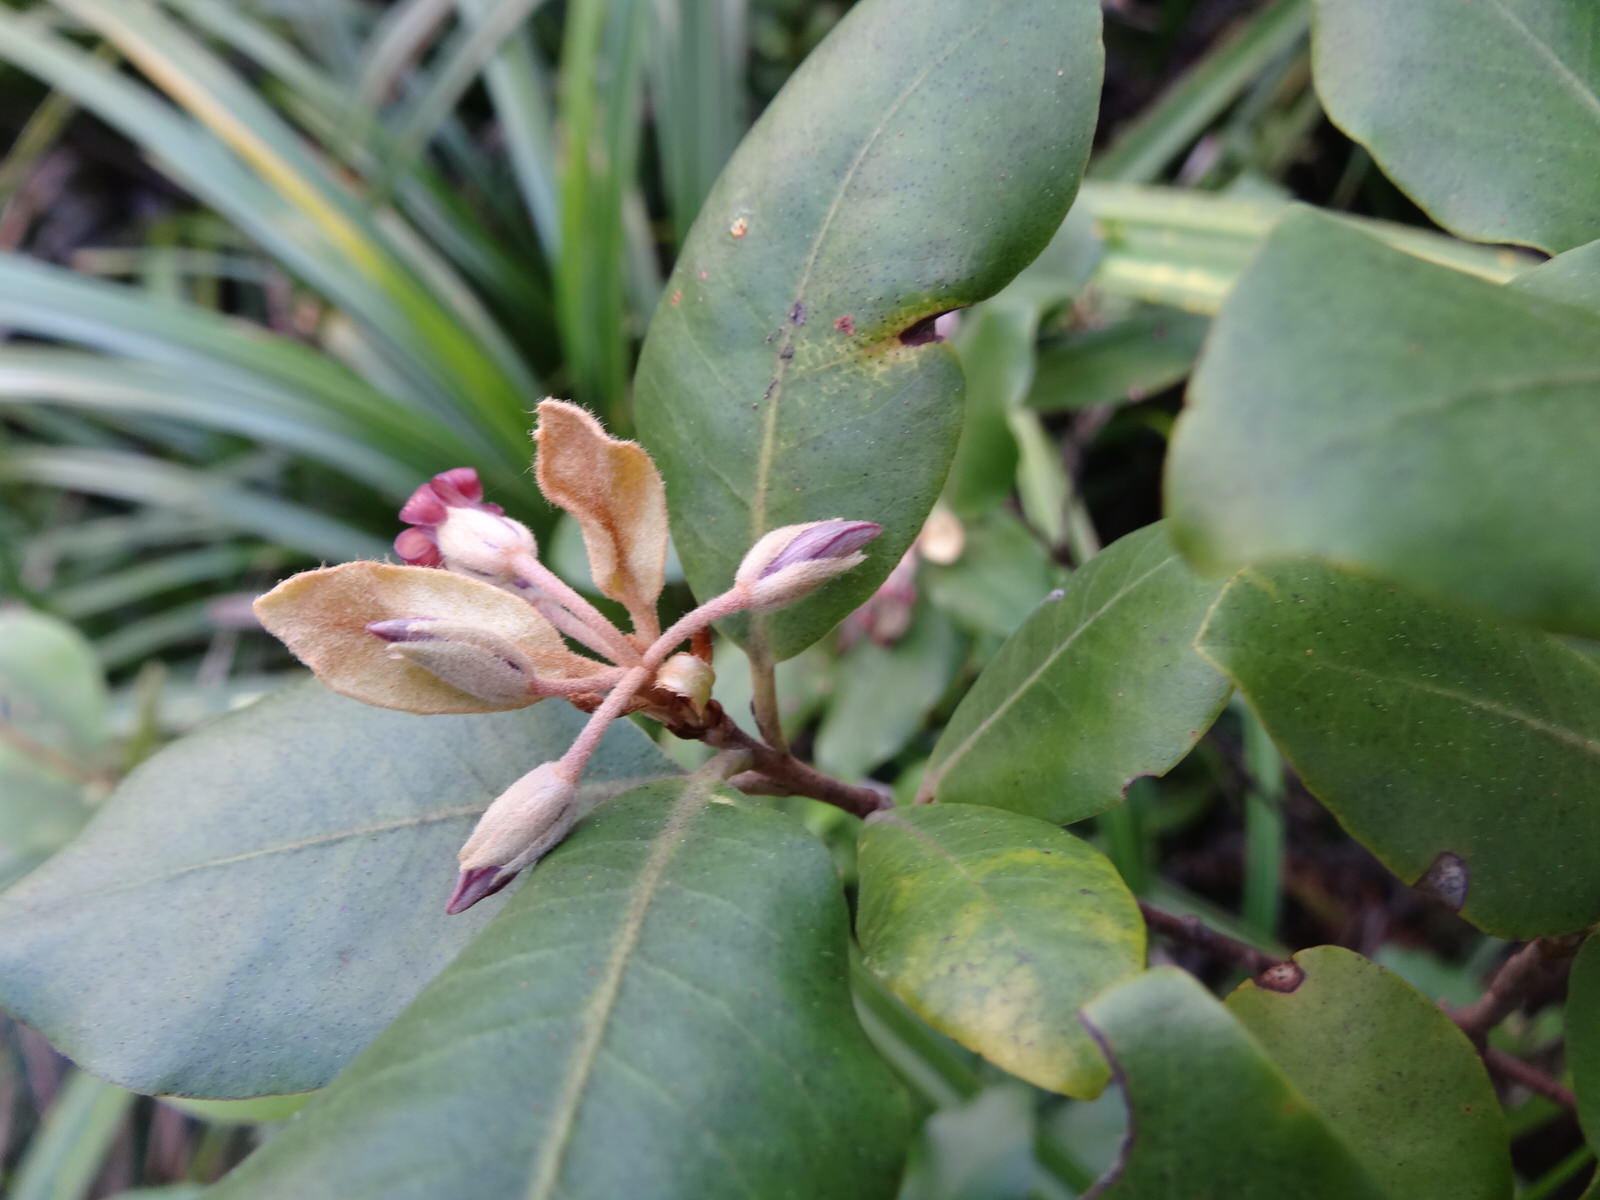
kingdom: Plantae
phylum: Tracheophyta
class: Magnoliopsida
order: Apiales
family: Pittosporaceae
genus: Pittosporum
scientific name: Pittosporum ellipticum
